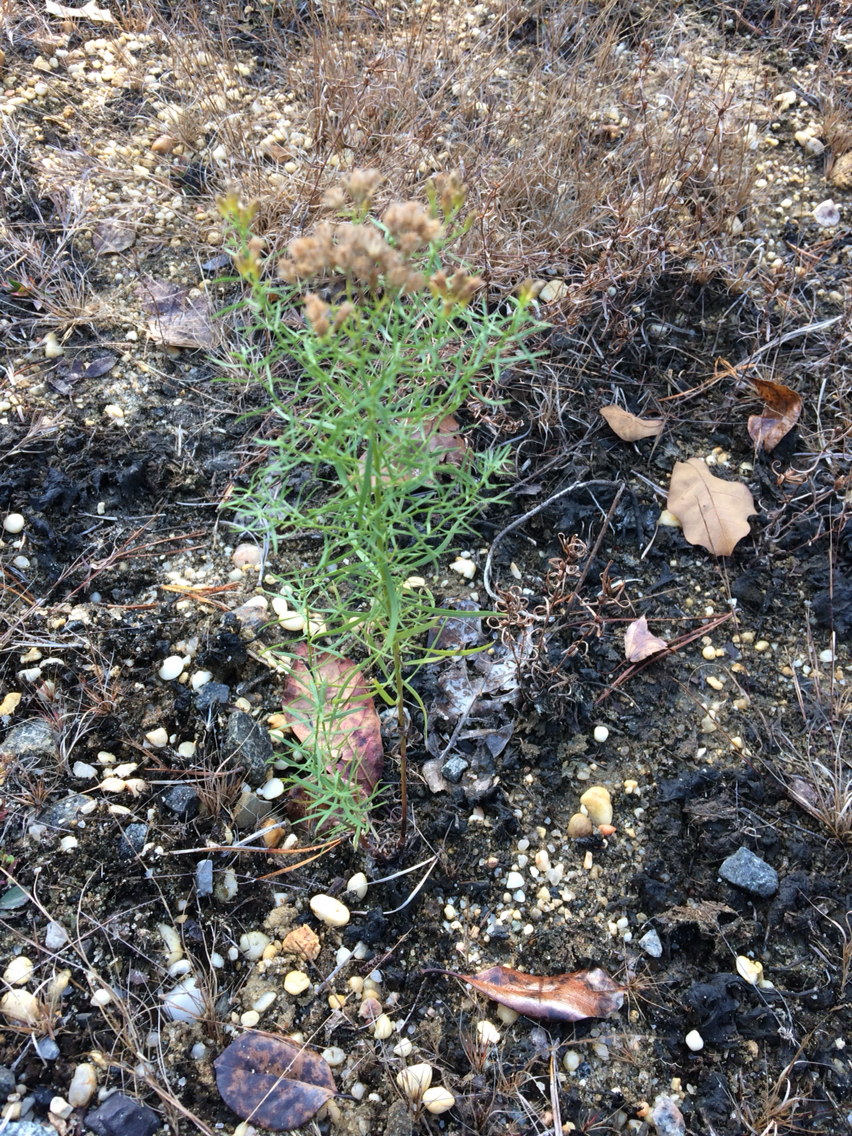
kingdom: Plantae
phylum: Tracheophyta
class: Magnoliopsida
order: Asterales
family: Asteraceae
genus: Euthamia
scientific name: Euthamia caroliniana
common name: Coastal plain goldentop
